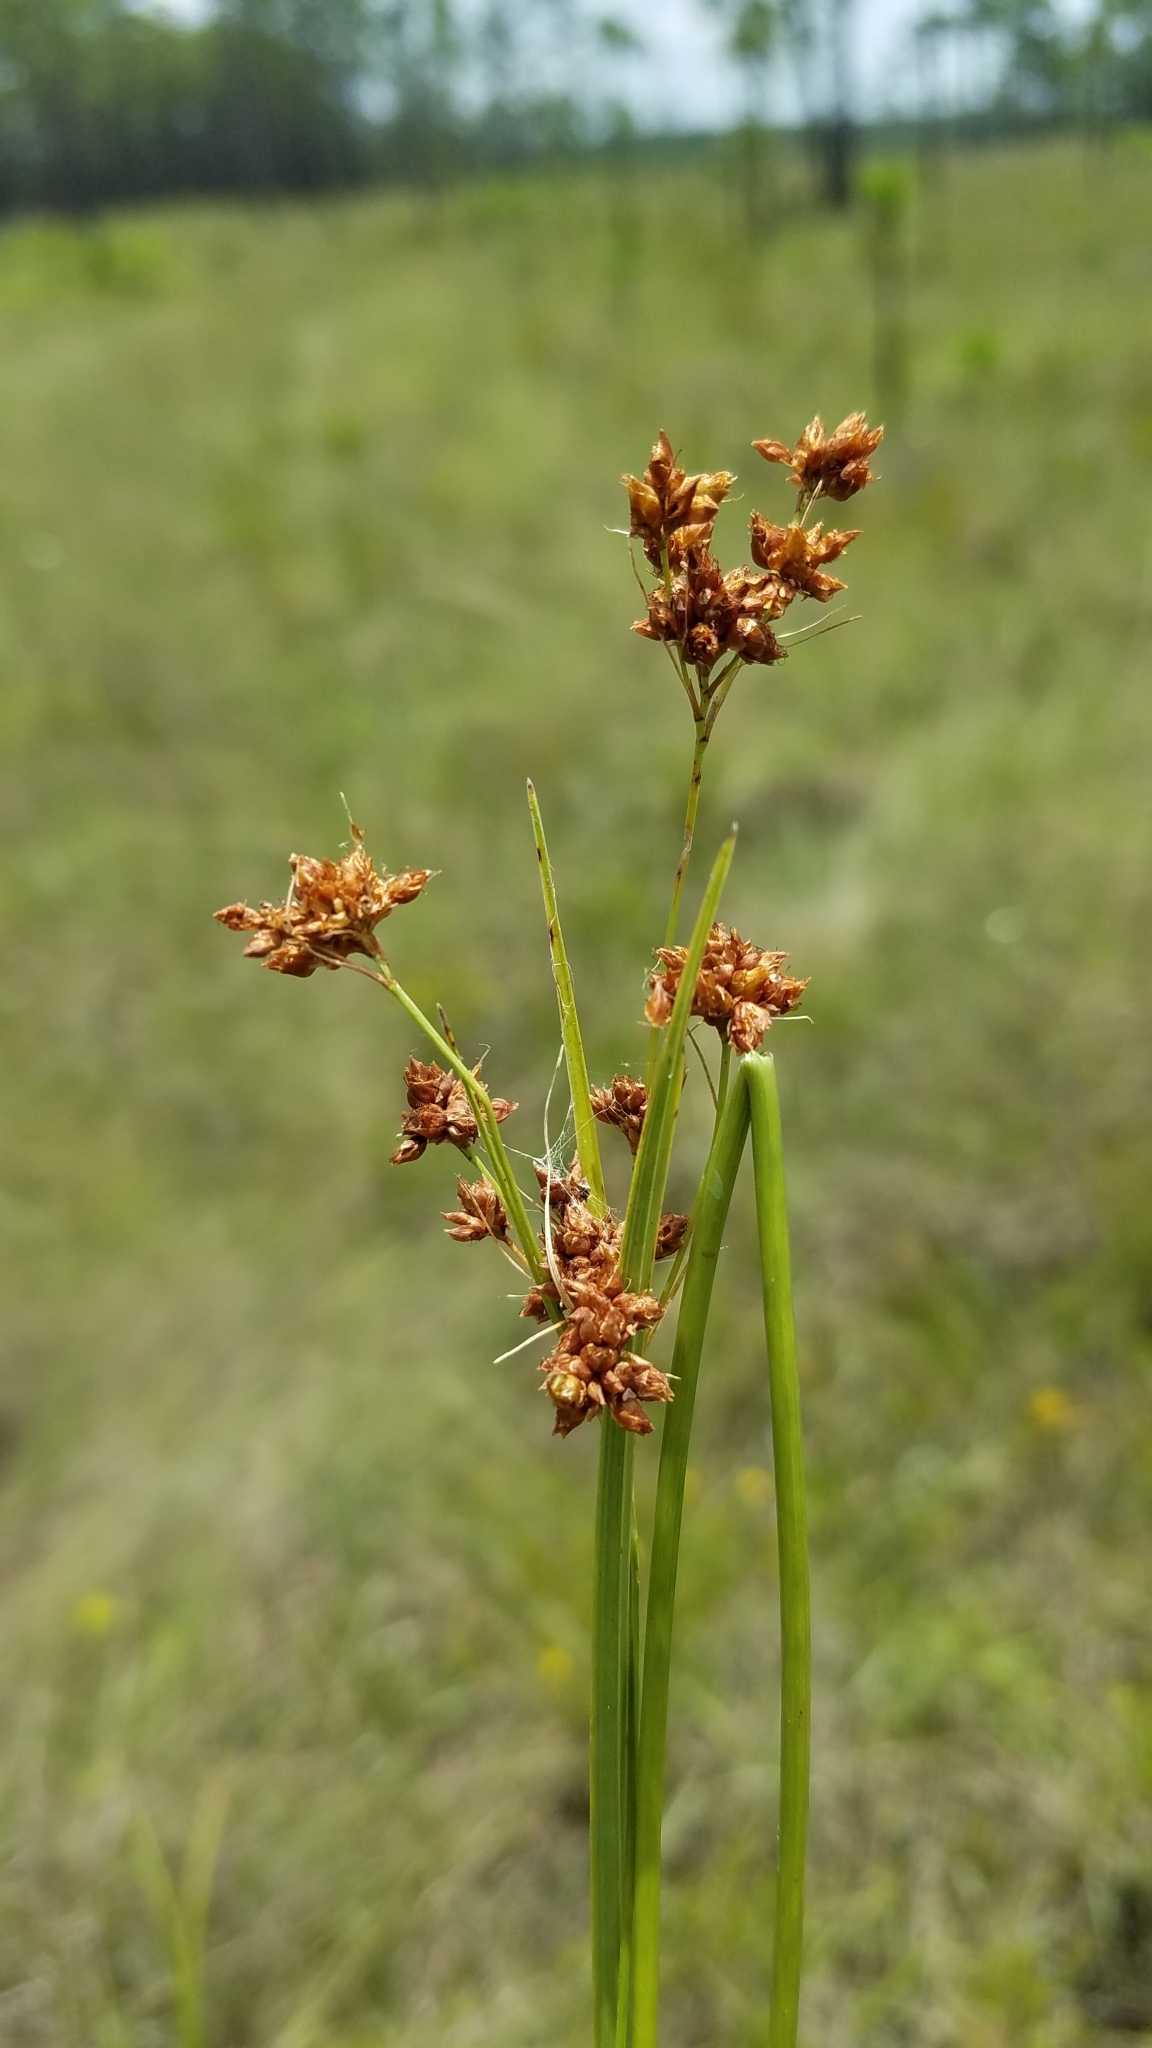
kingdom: Plantae
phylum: Tracheophyta
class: Liliopsida
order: Poales
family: Cyperaceae
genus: Rhynchospora
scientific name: Rhynchospora compressa
